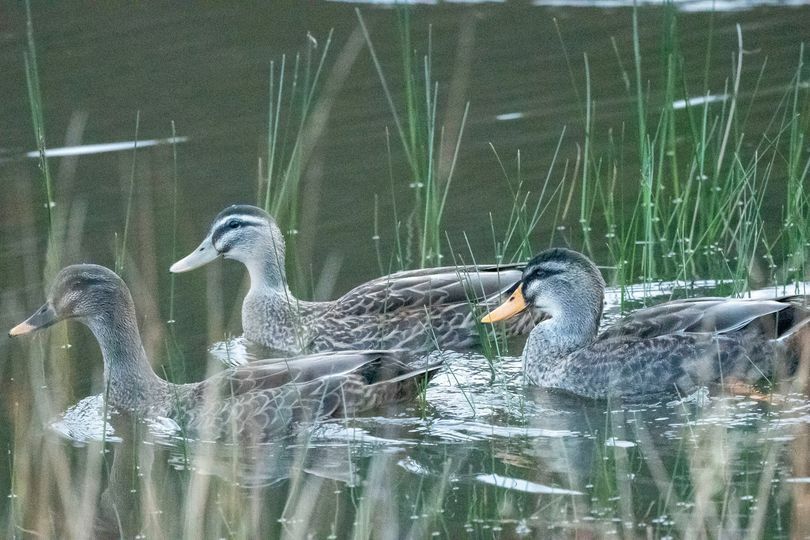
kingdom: Animalia
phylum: Chordata
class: Aves
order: Anseriformes
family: Anatidae
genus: Anas
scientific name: Anas
